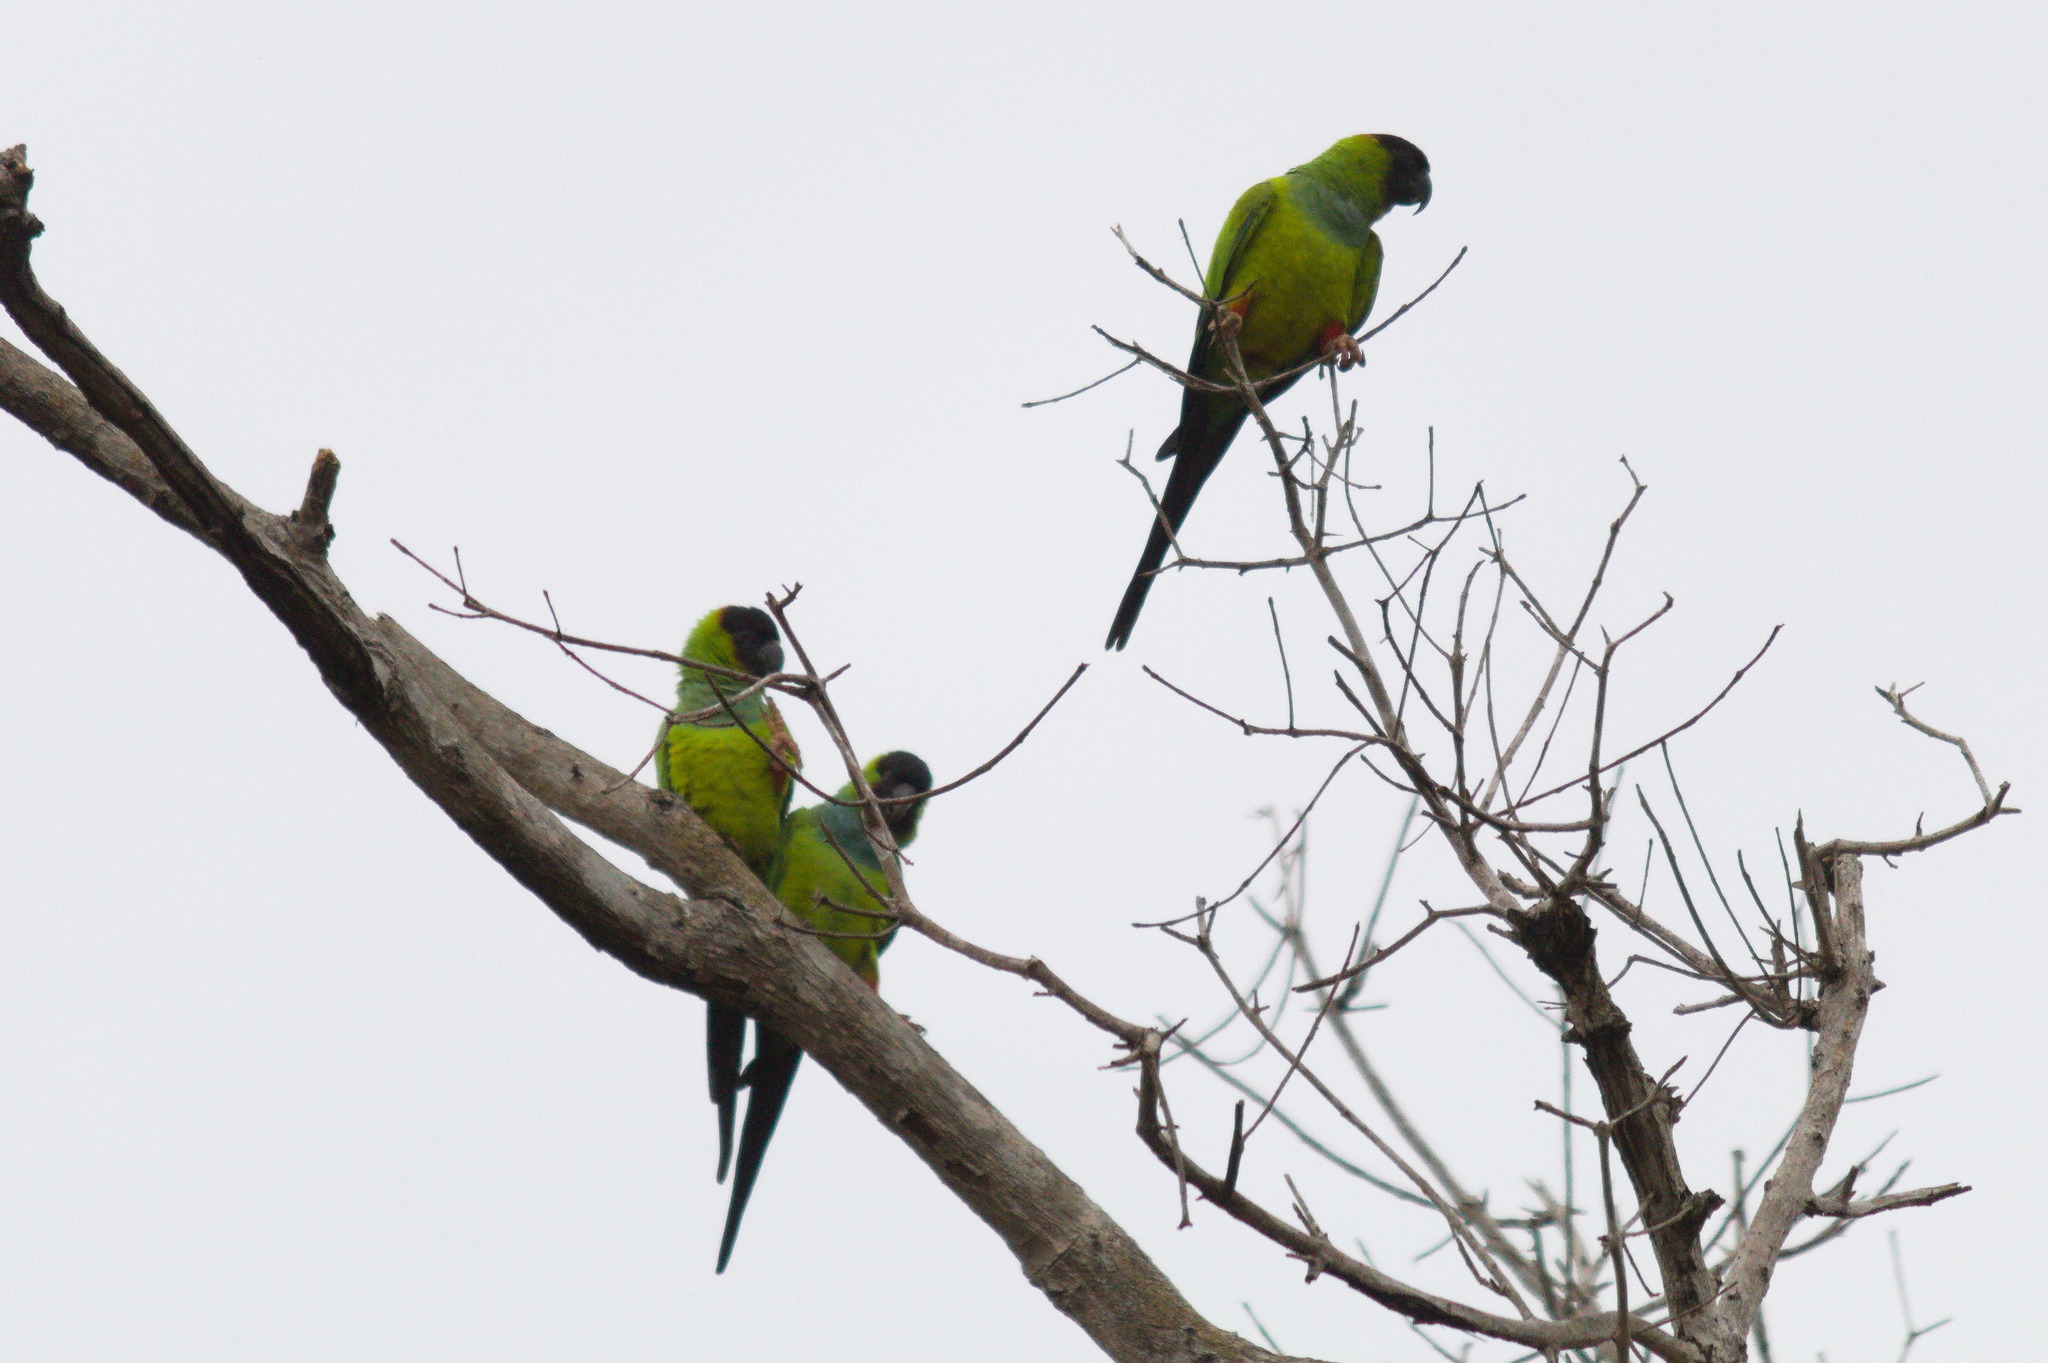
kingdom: Animalia
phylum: Chordata
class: Aves
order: Psittaciformes
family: Psittacidae
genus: Nandayus
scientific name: Nandayus nenday
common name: Nanday parakeet
